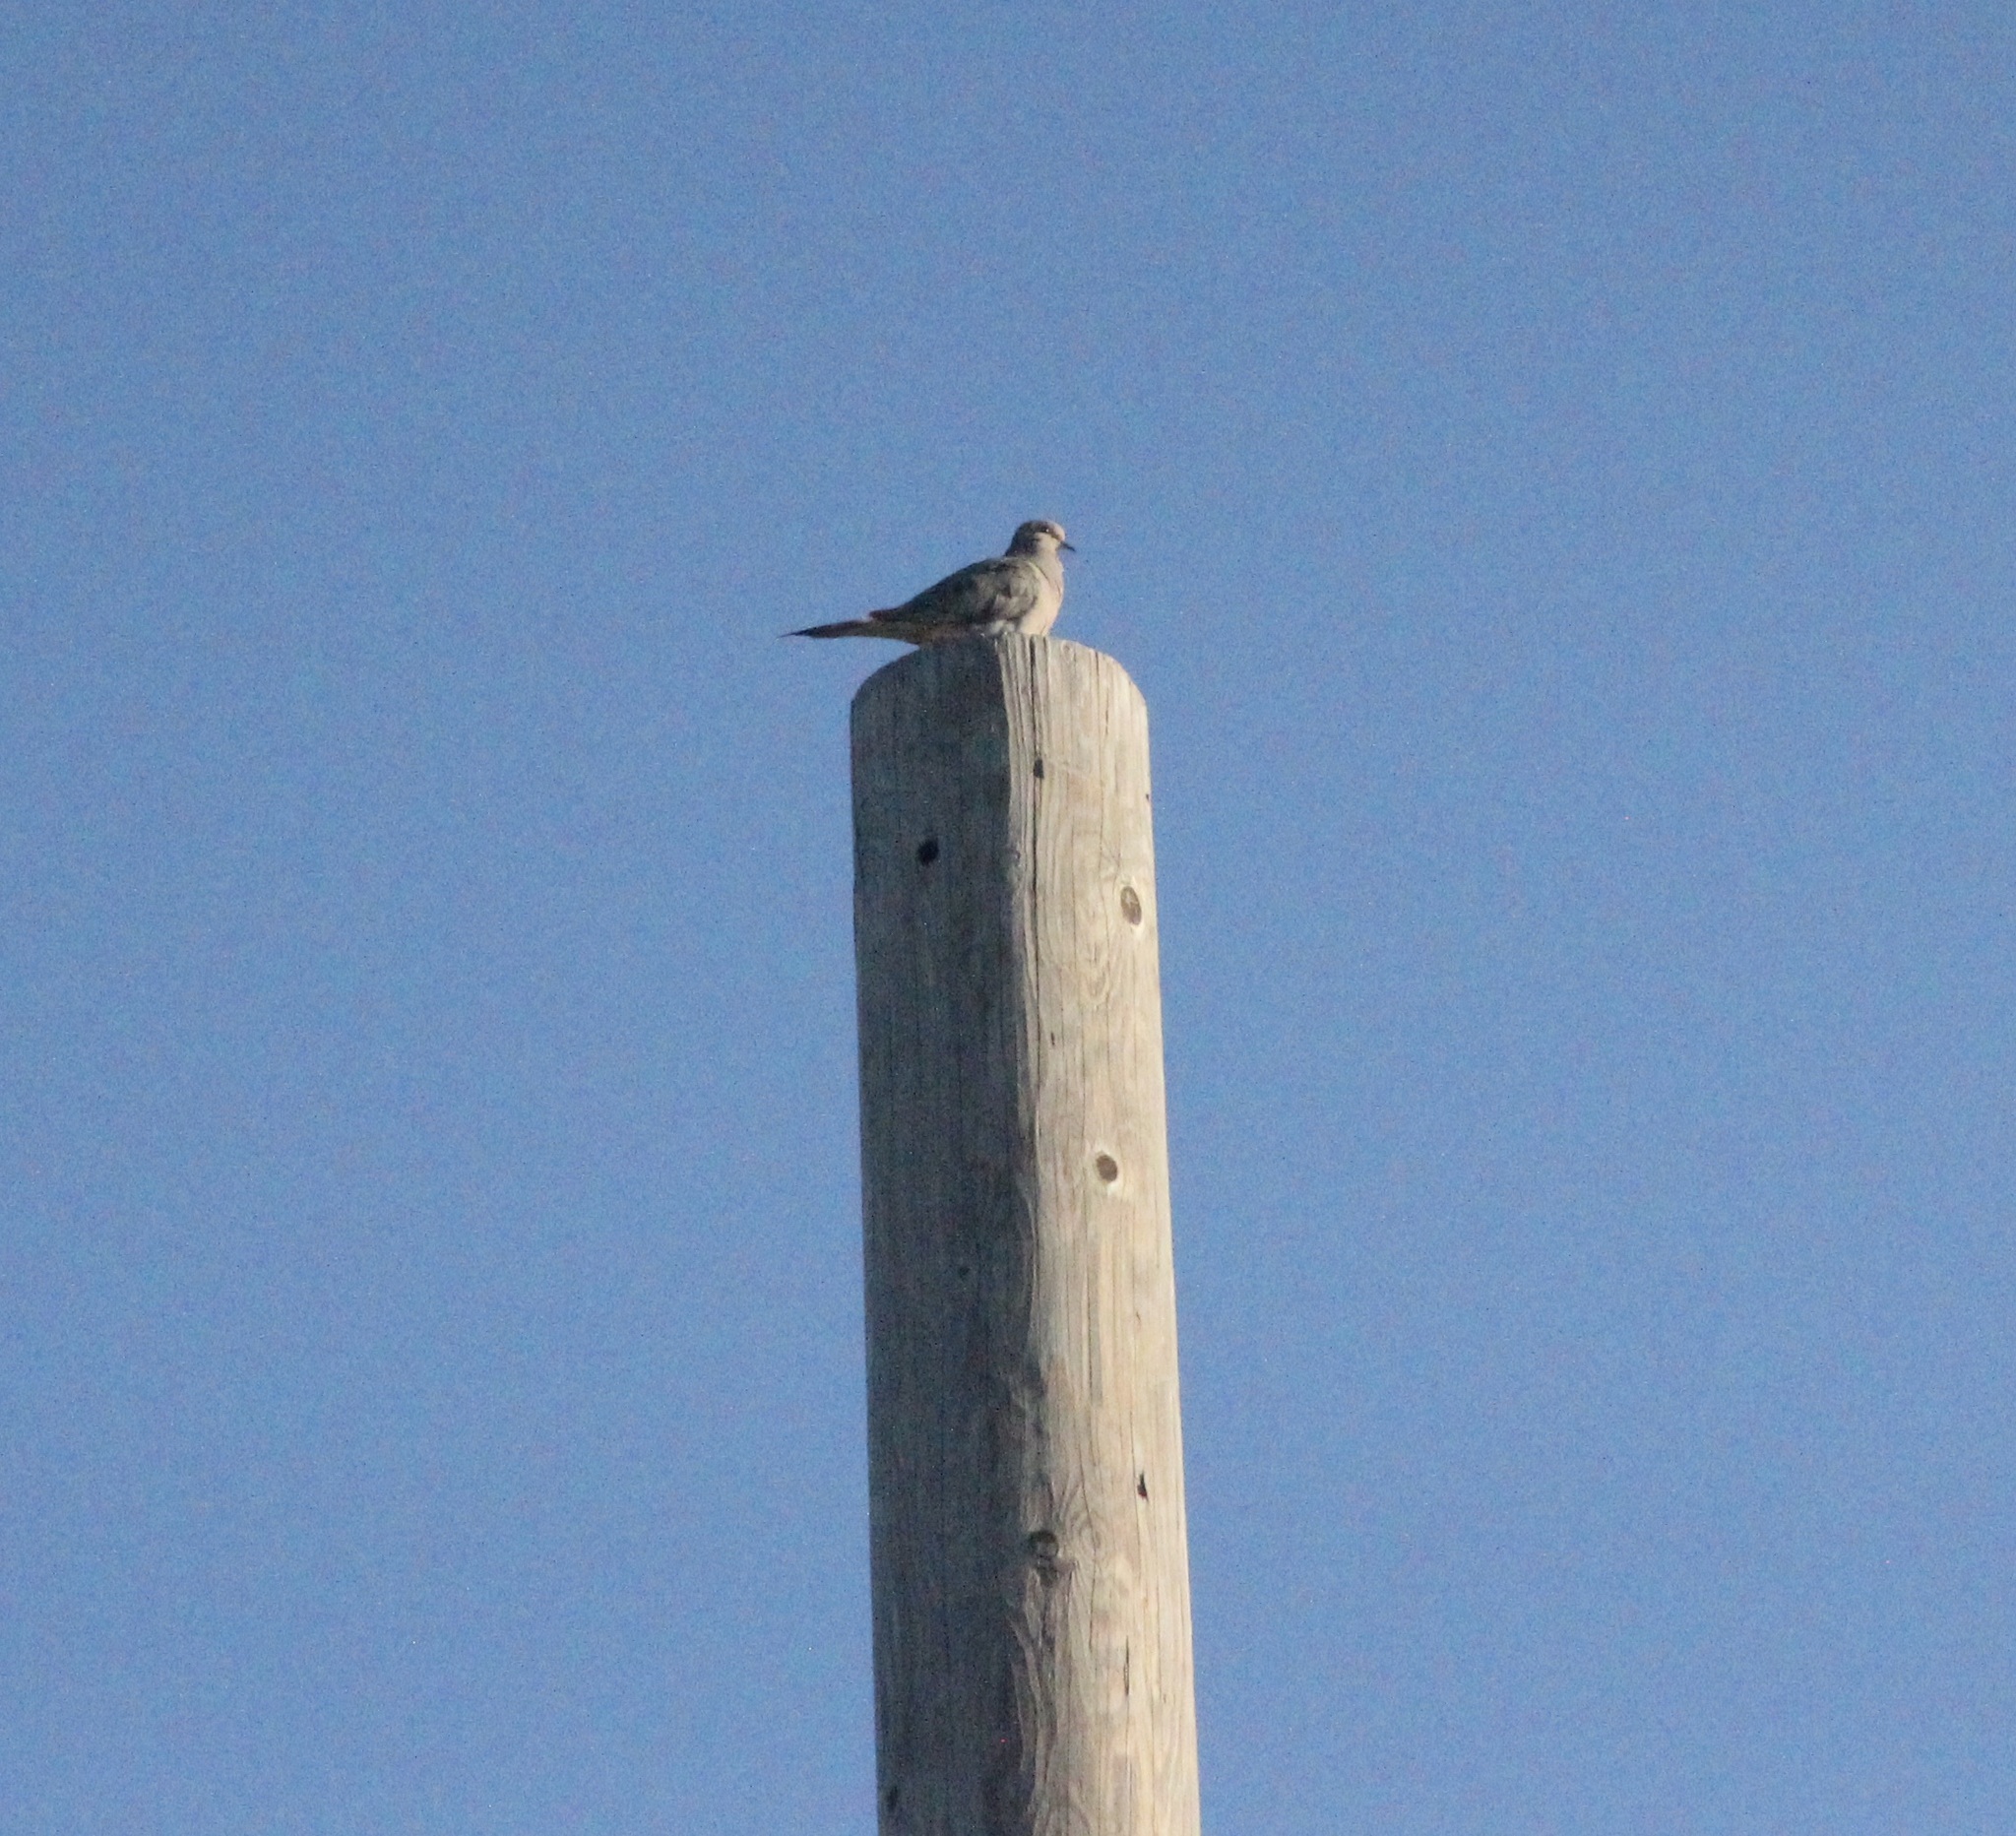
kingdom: Animalia
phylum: Chordata
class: Aves
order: Columbiformes
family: Columbidae
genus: Zenaida
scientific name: Zenaida macroura
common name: Mourning dove
